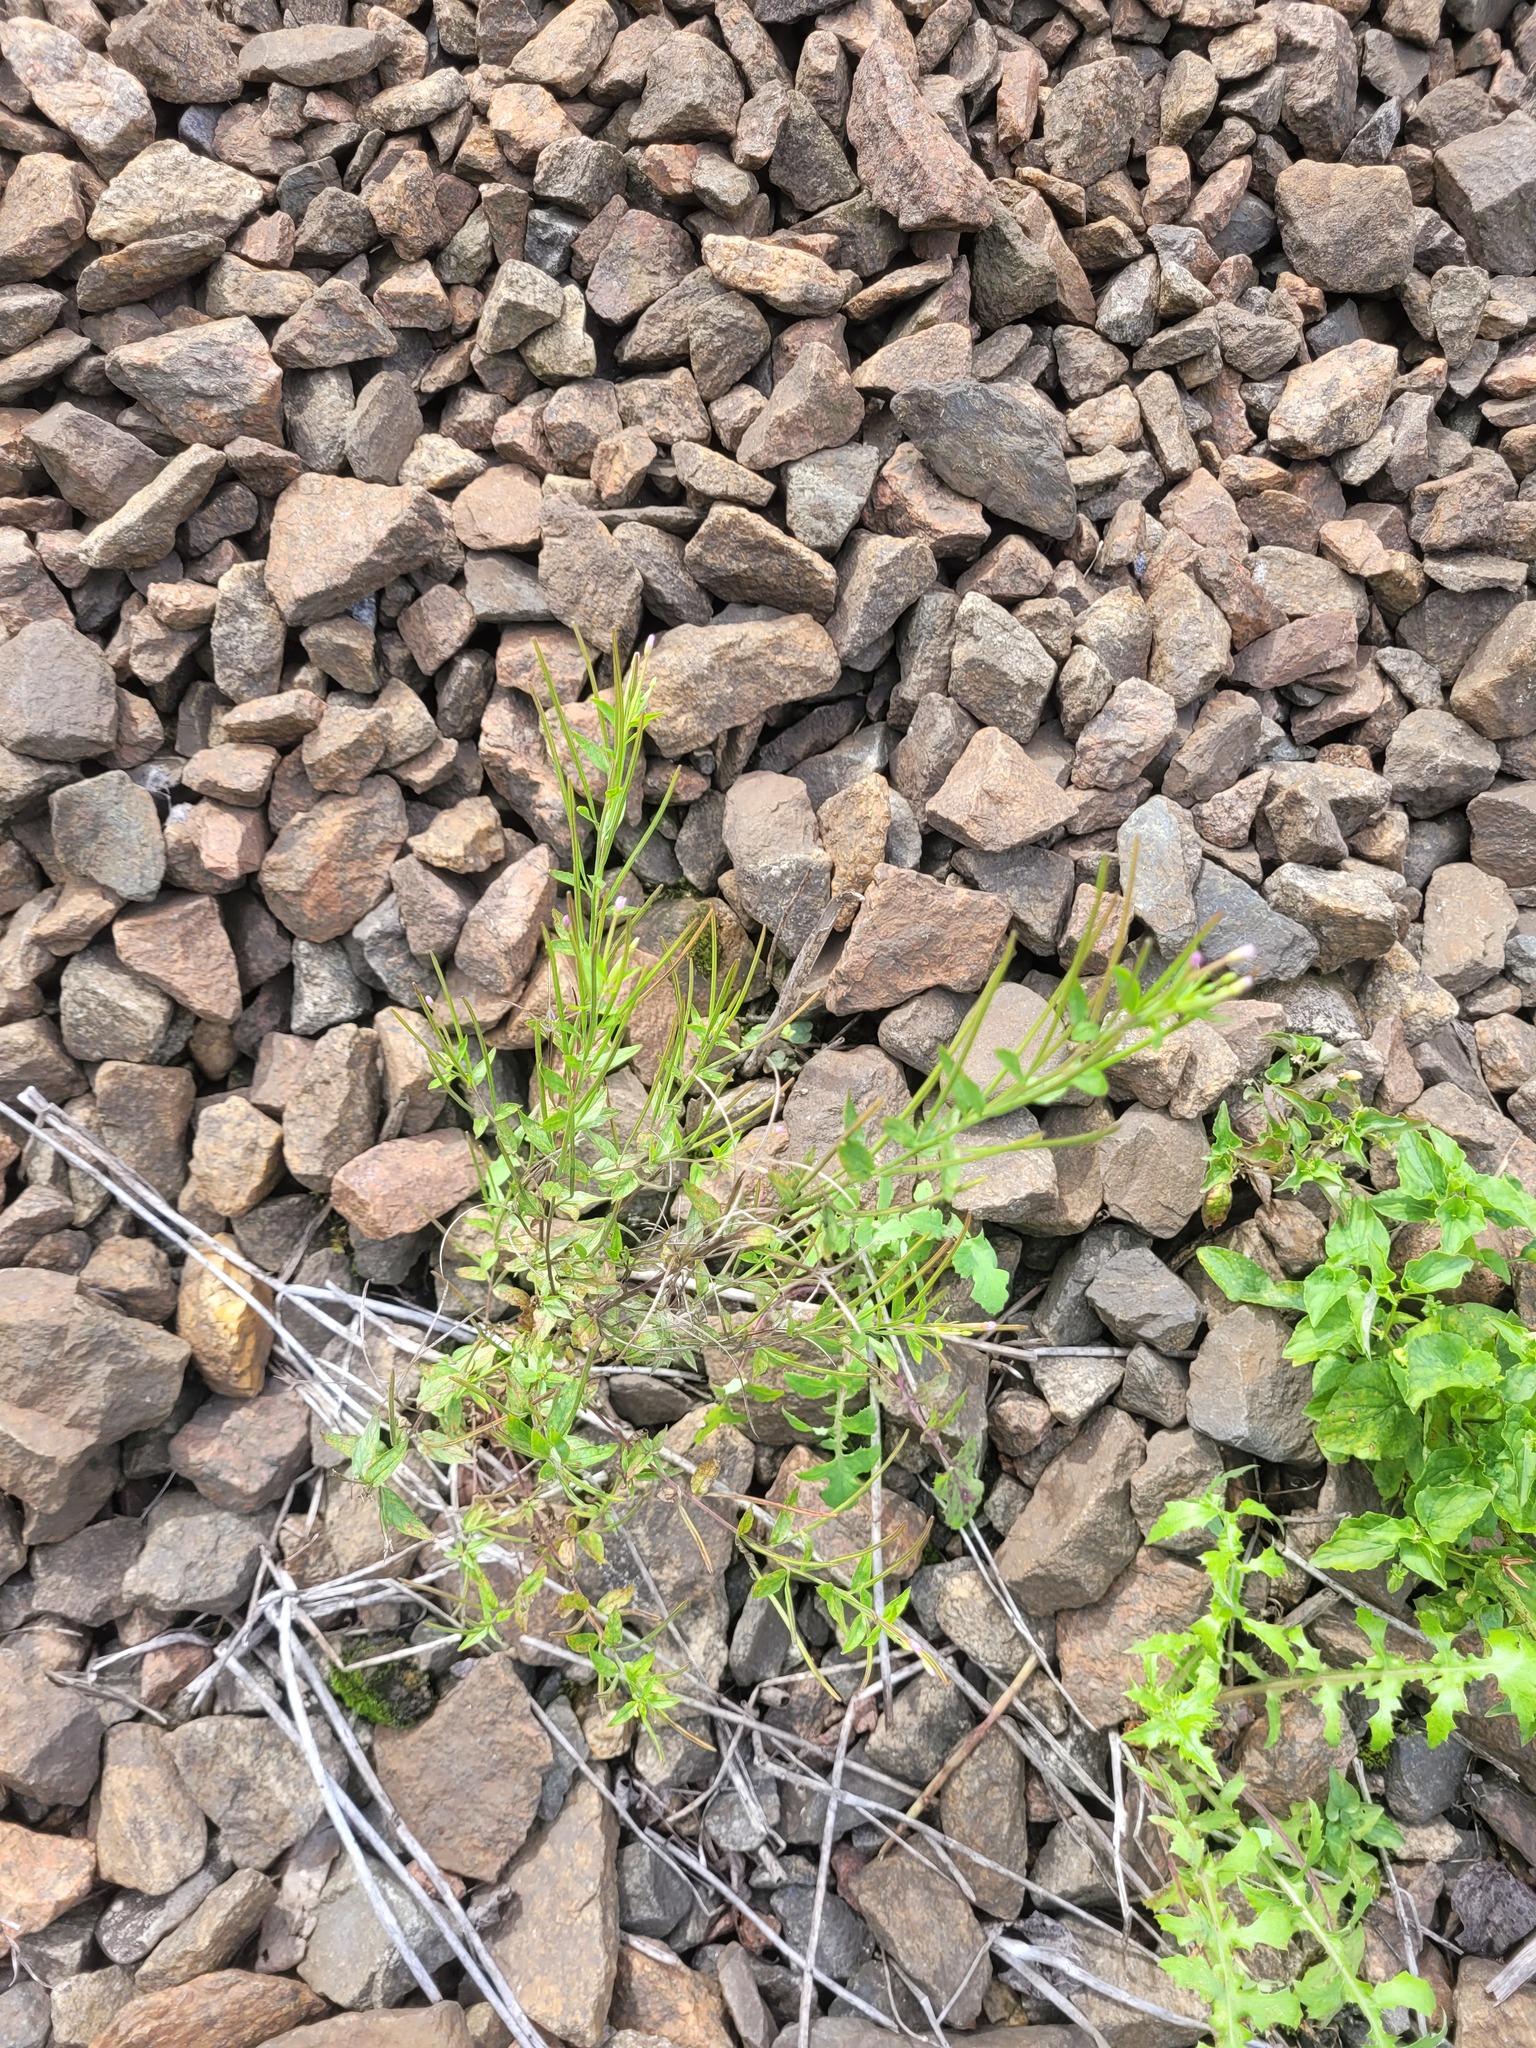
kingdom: Plantae
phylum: Tracheophyta
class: Magnoliopsida
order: Myrtales
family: Onagraceae
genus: Epilobium
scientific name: Epilobium ciliatum
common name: American willowherb
